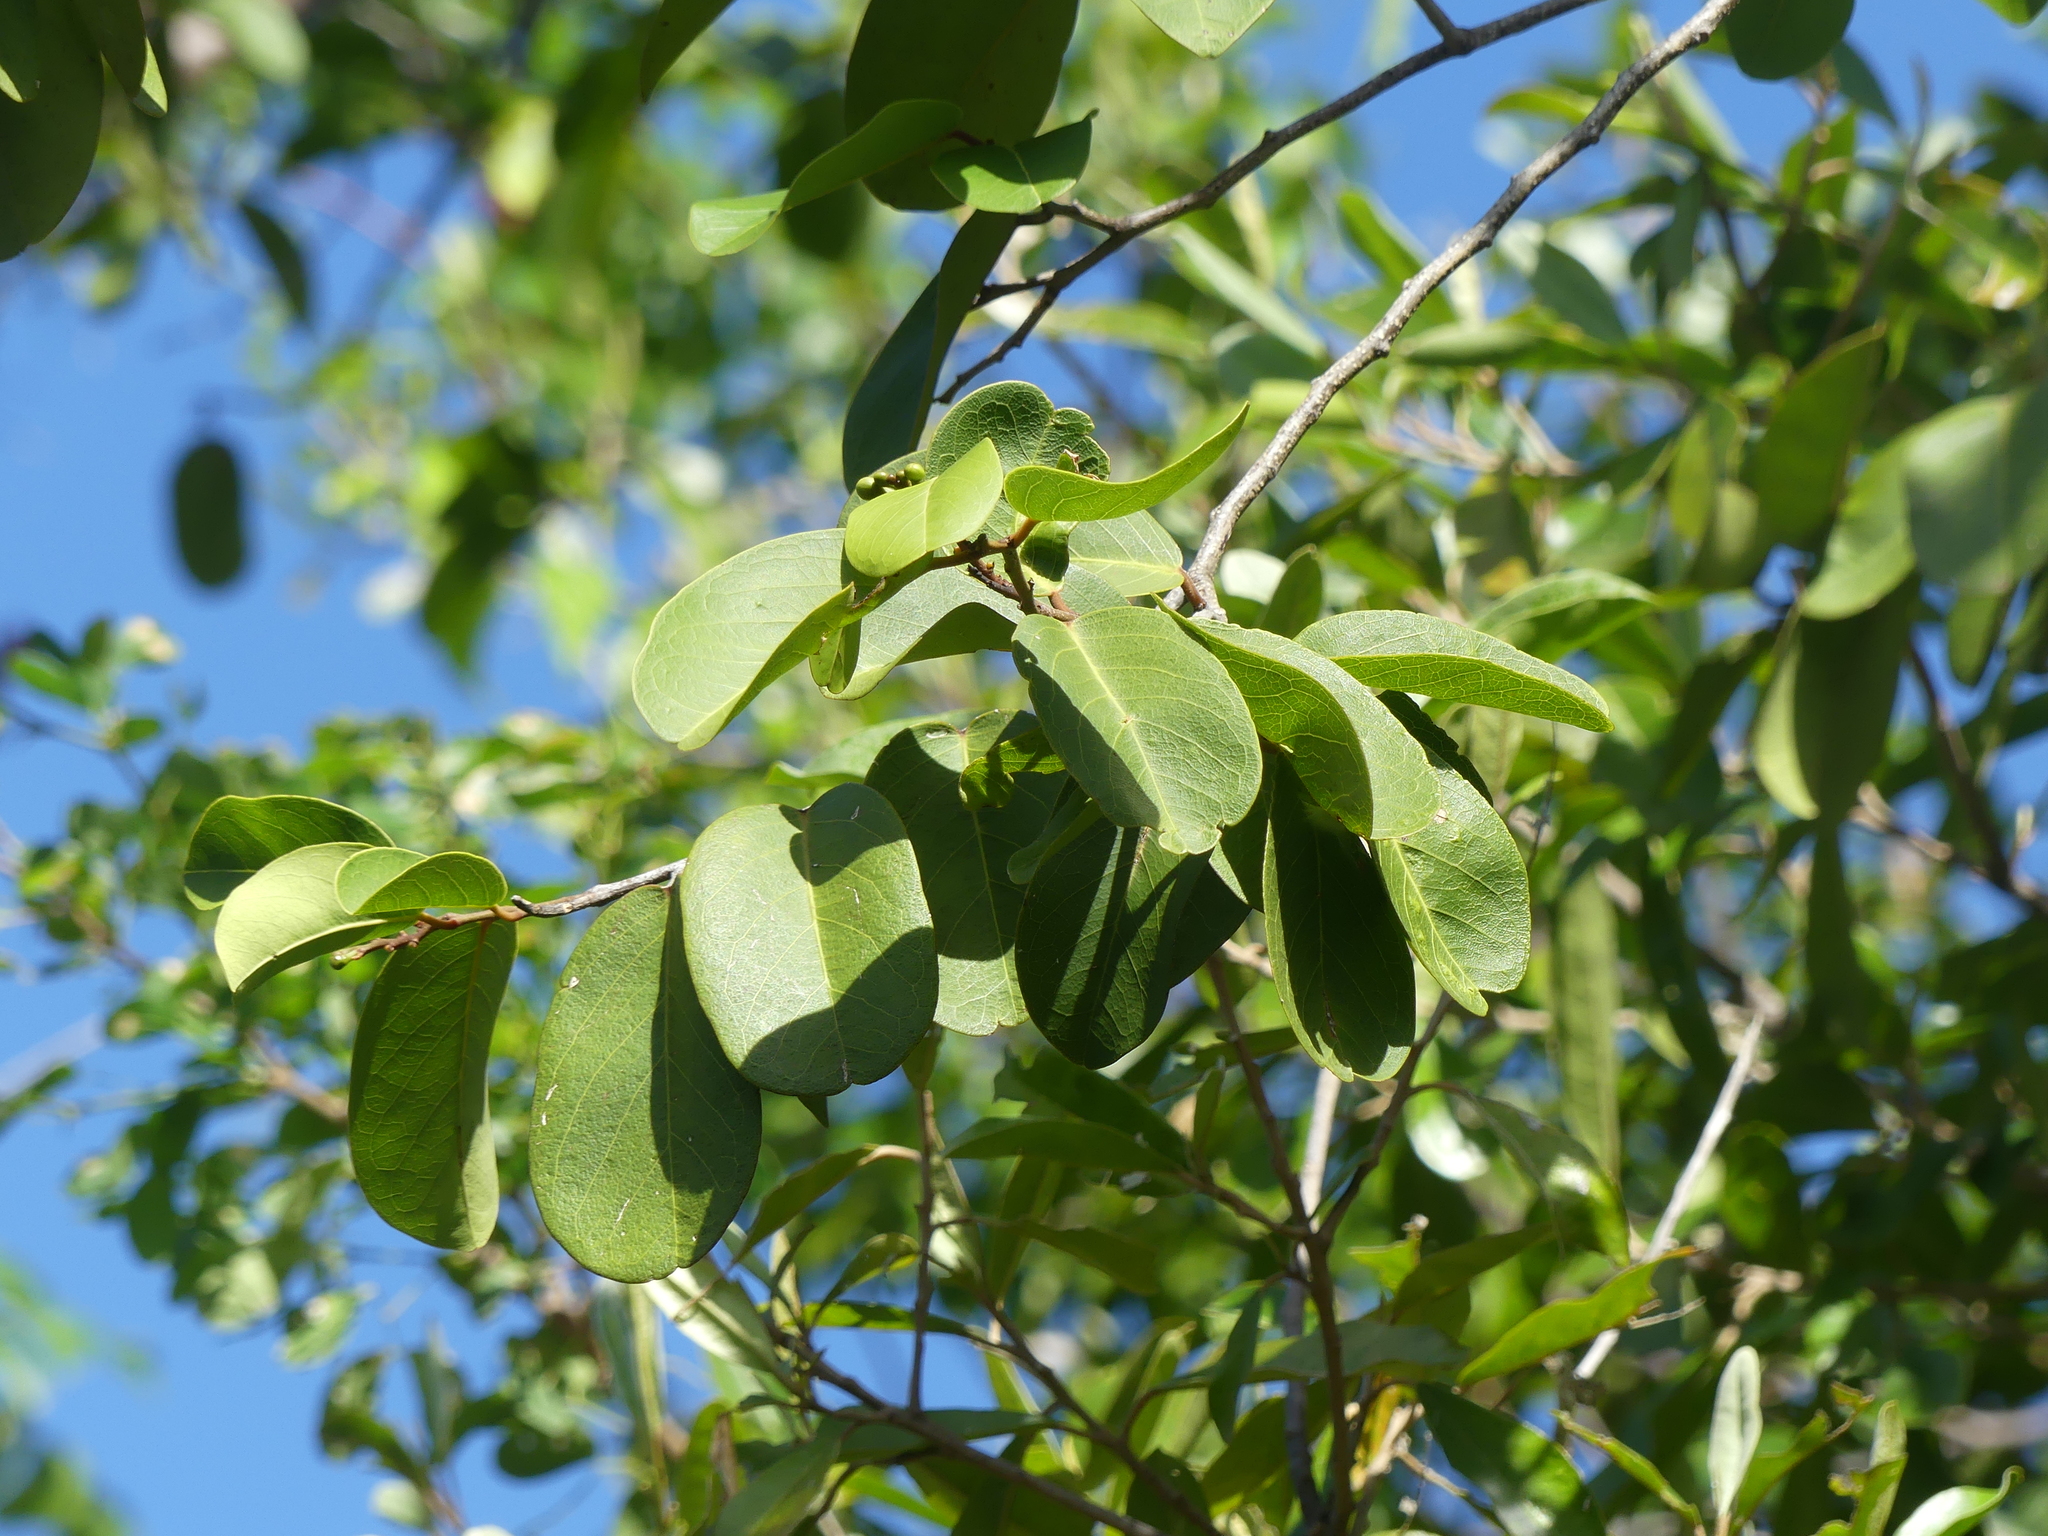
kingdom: Plantae
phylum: Tracheophyta
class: Magnoliopsida
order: Brassicales
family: Capparaceae
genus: Cynophalla
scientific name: Cynophalla flexuosa
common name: Capertree
